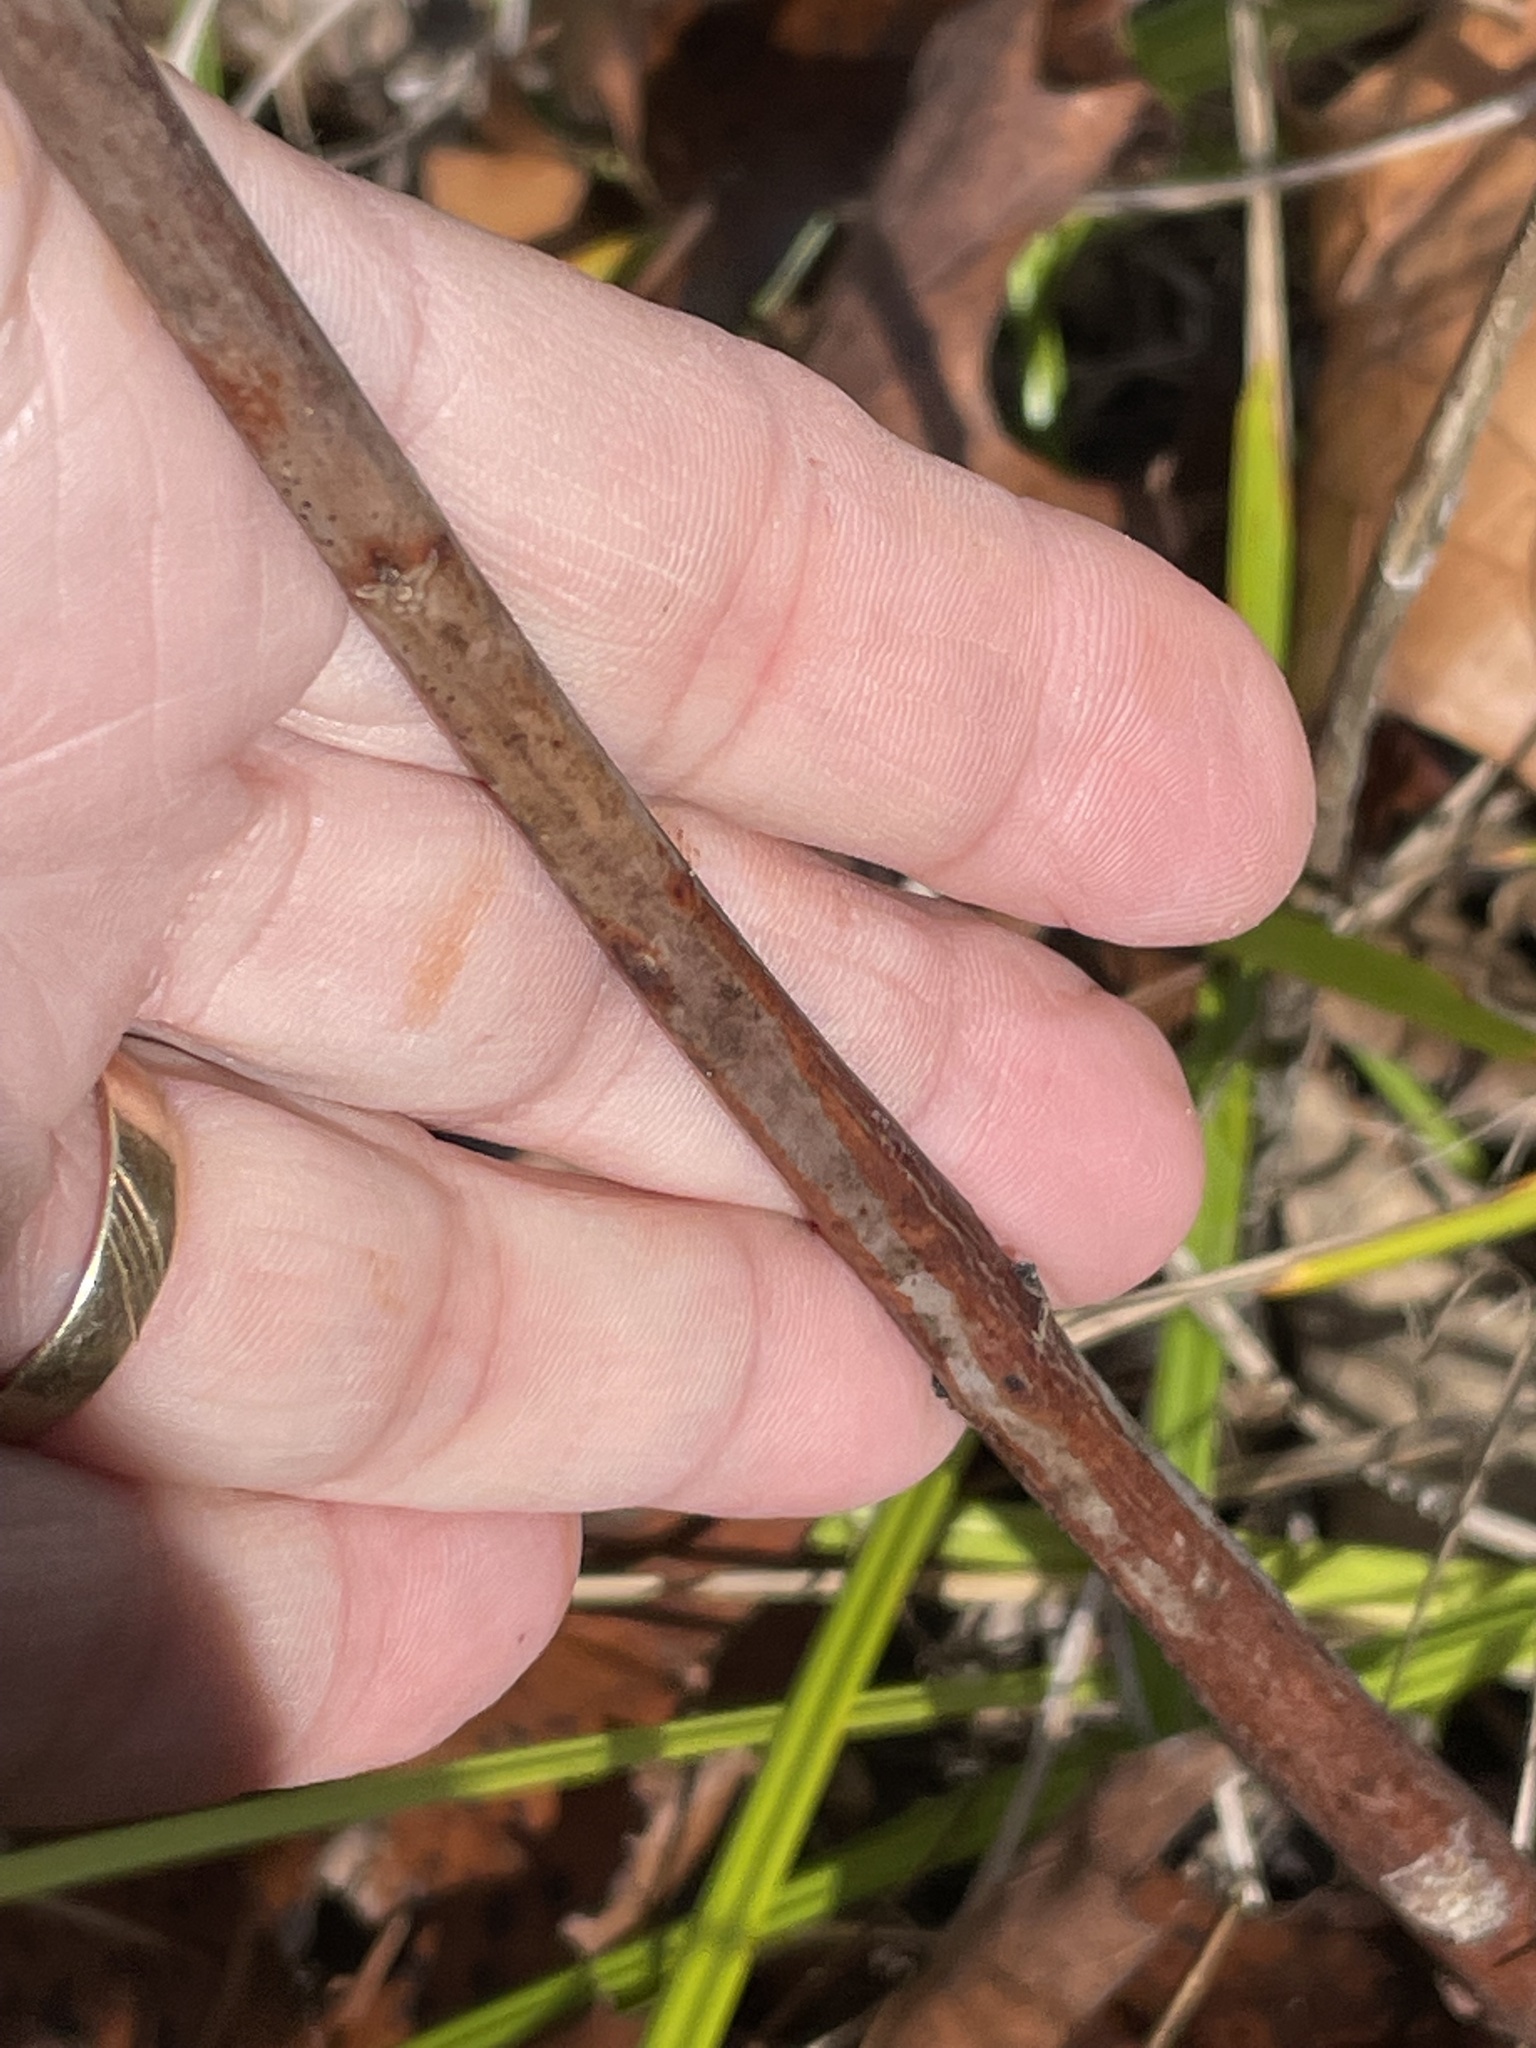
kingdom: Plantae
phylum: Tracheophyta
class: Magnoliopsida
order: Gentianales
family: Apocynaceae
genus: Apocynum
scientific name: Apocynum cannabinum
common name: Hemp dogbane
